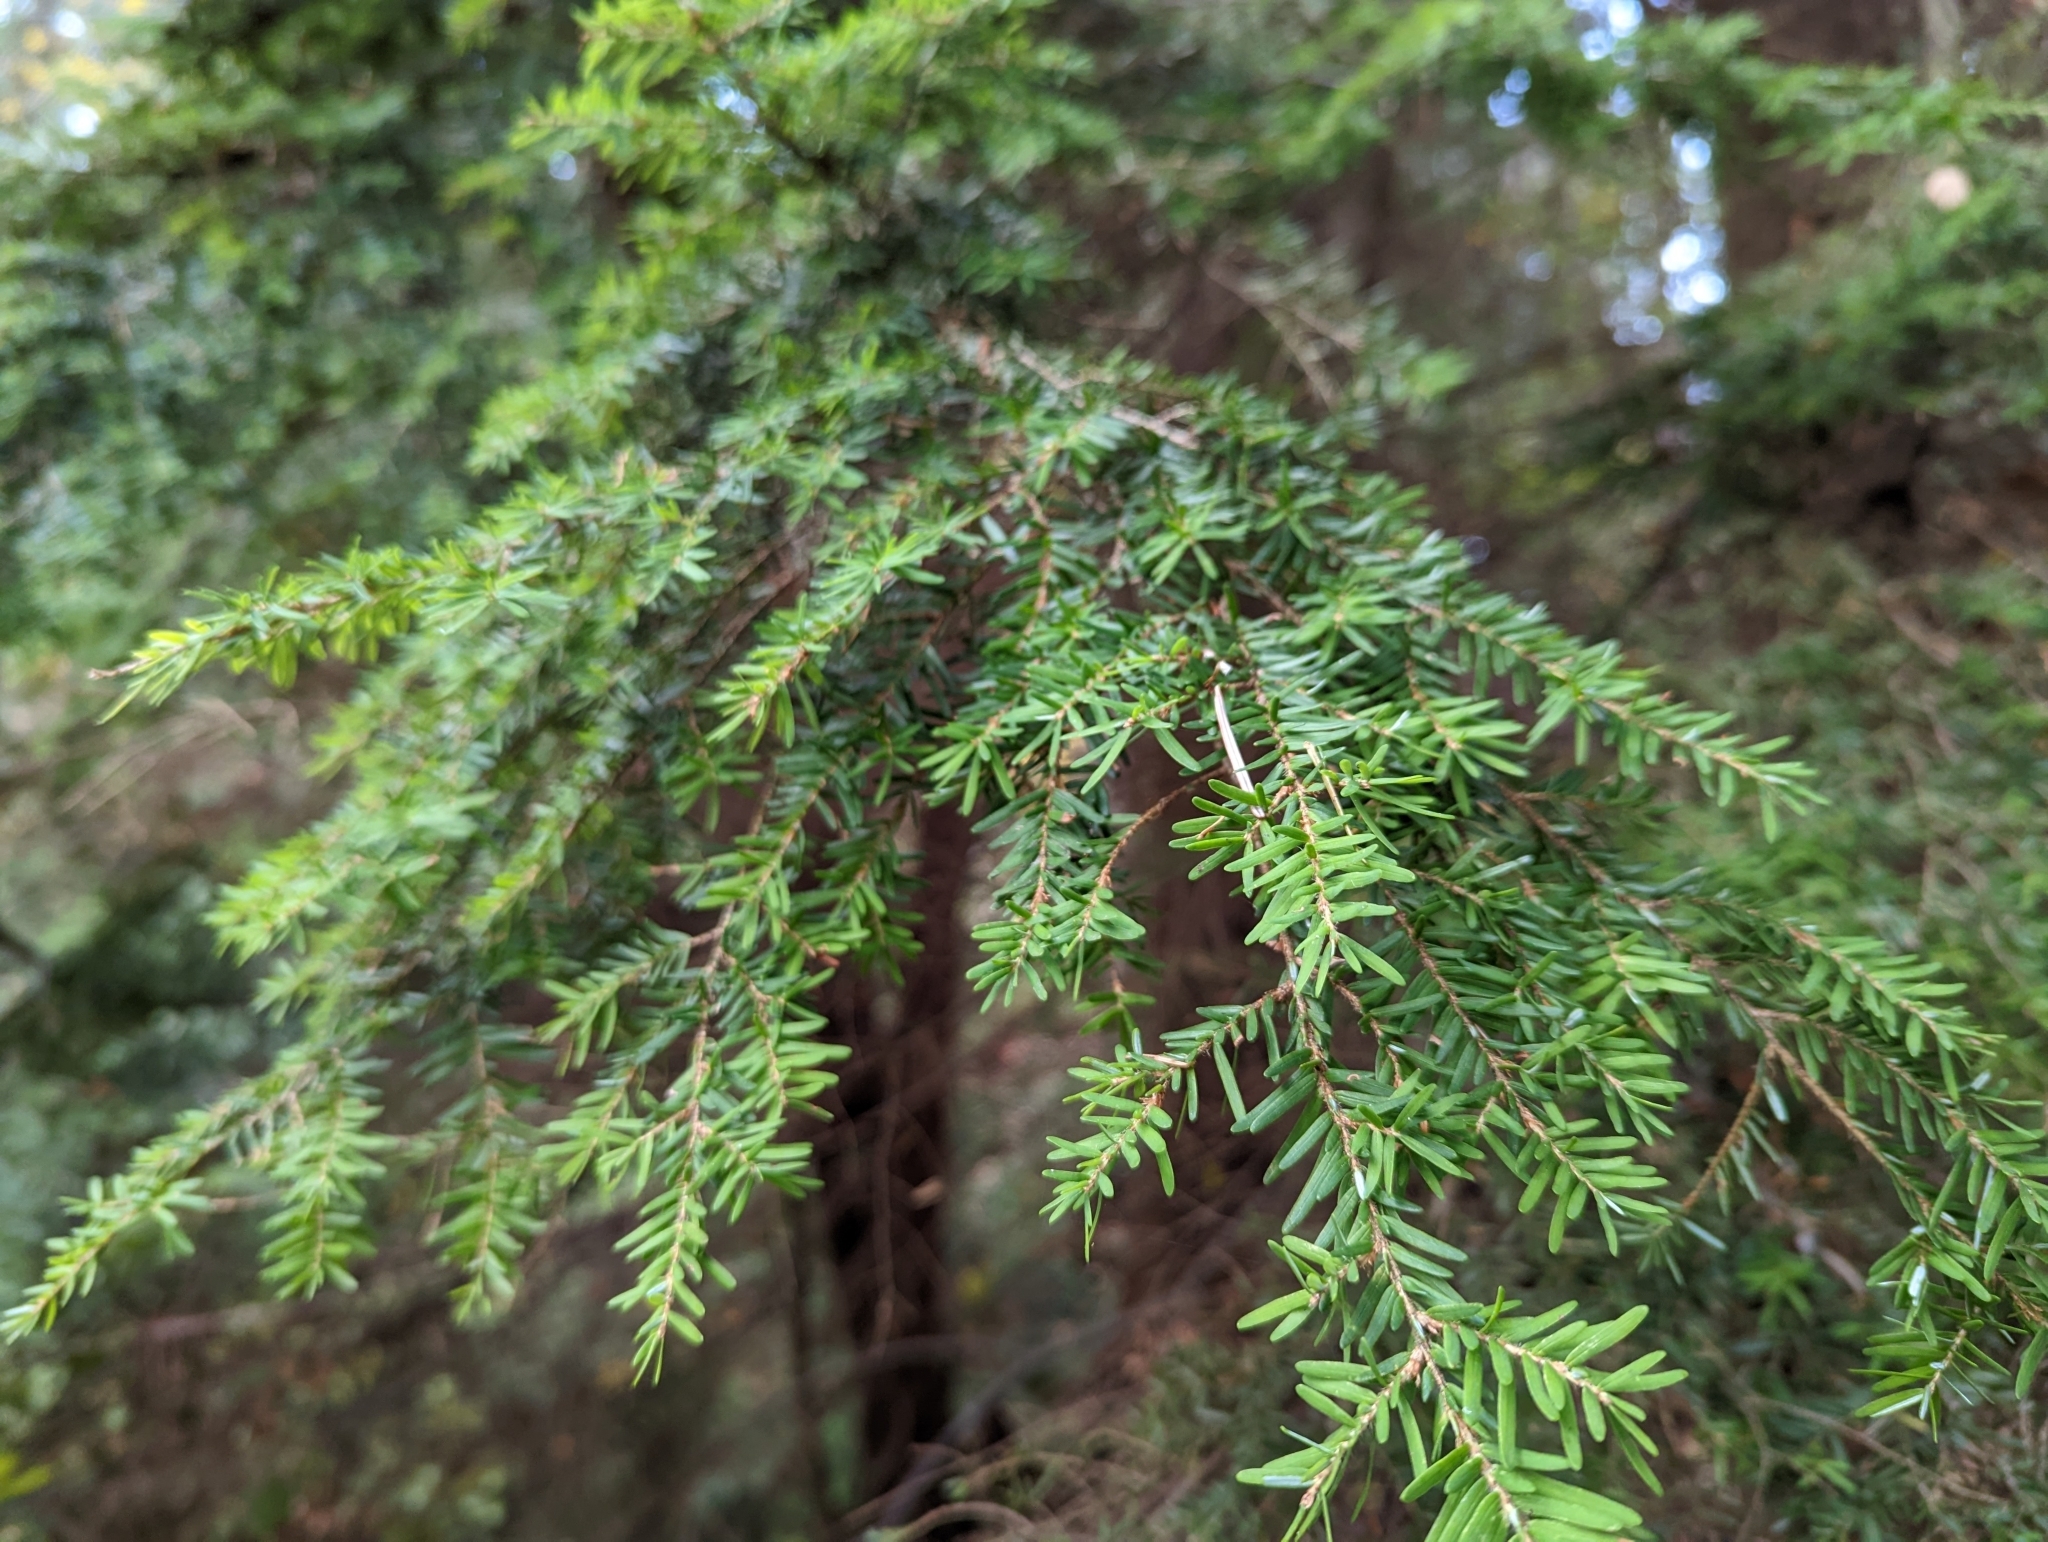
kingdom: Plantae
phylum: Tracheophyta
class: Pinopsida
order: Pinales
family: Pinaceae
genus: Tsuga
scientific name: Tsuga heterophylla
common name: Western hemlock
